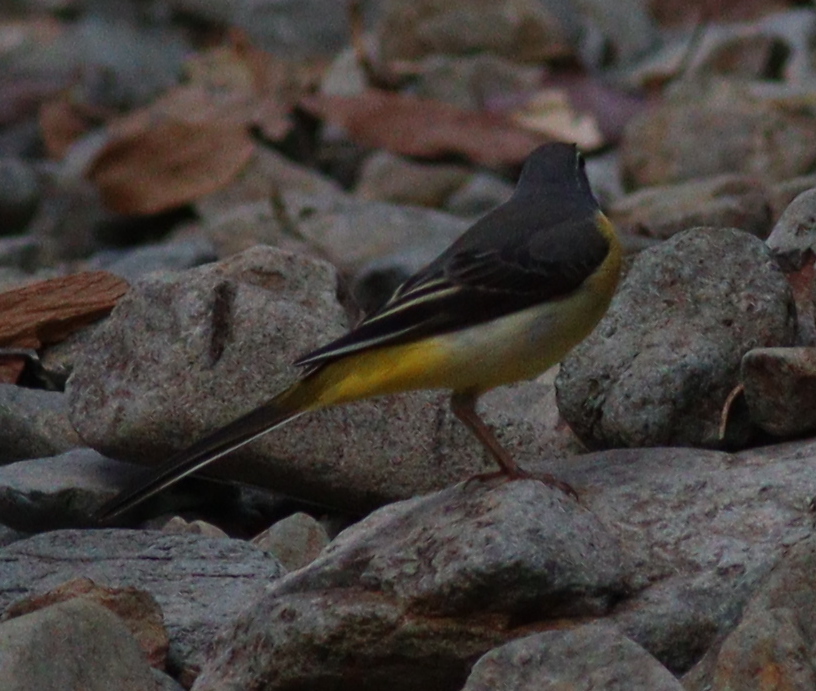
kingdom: Animalia
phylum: Chordata
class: Aves
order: Passeriformes
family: Motacillidae
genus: Motacilla
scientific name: Motacilla cinerea
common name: Grey wagtail
